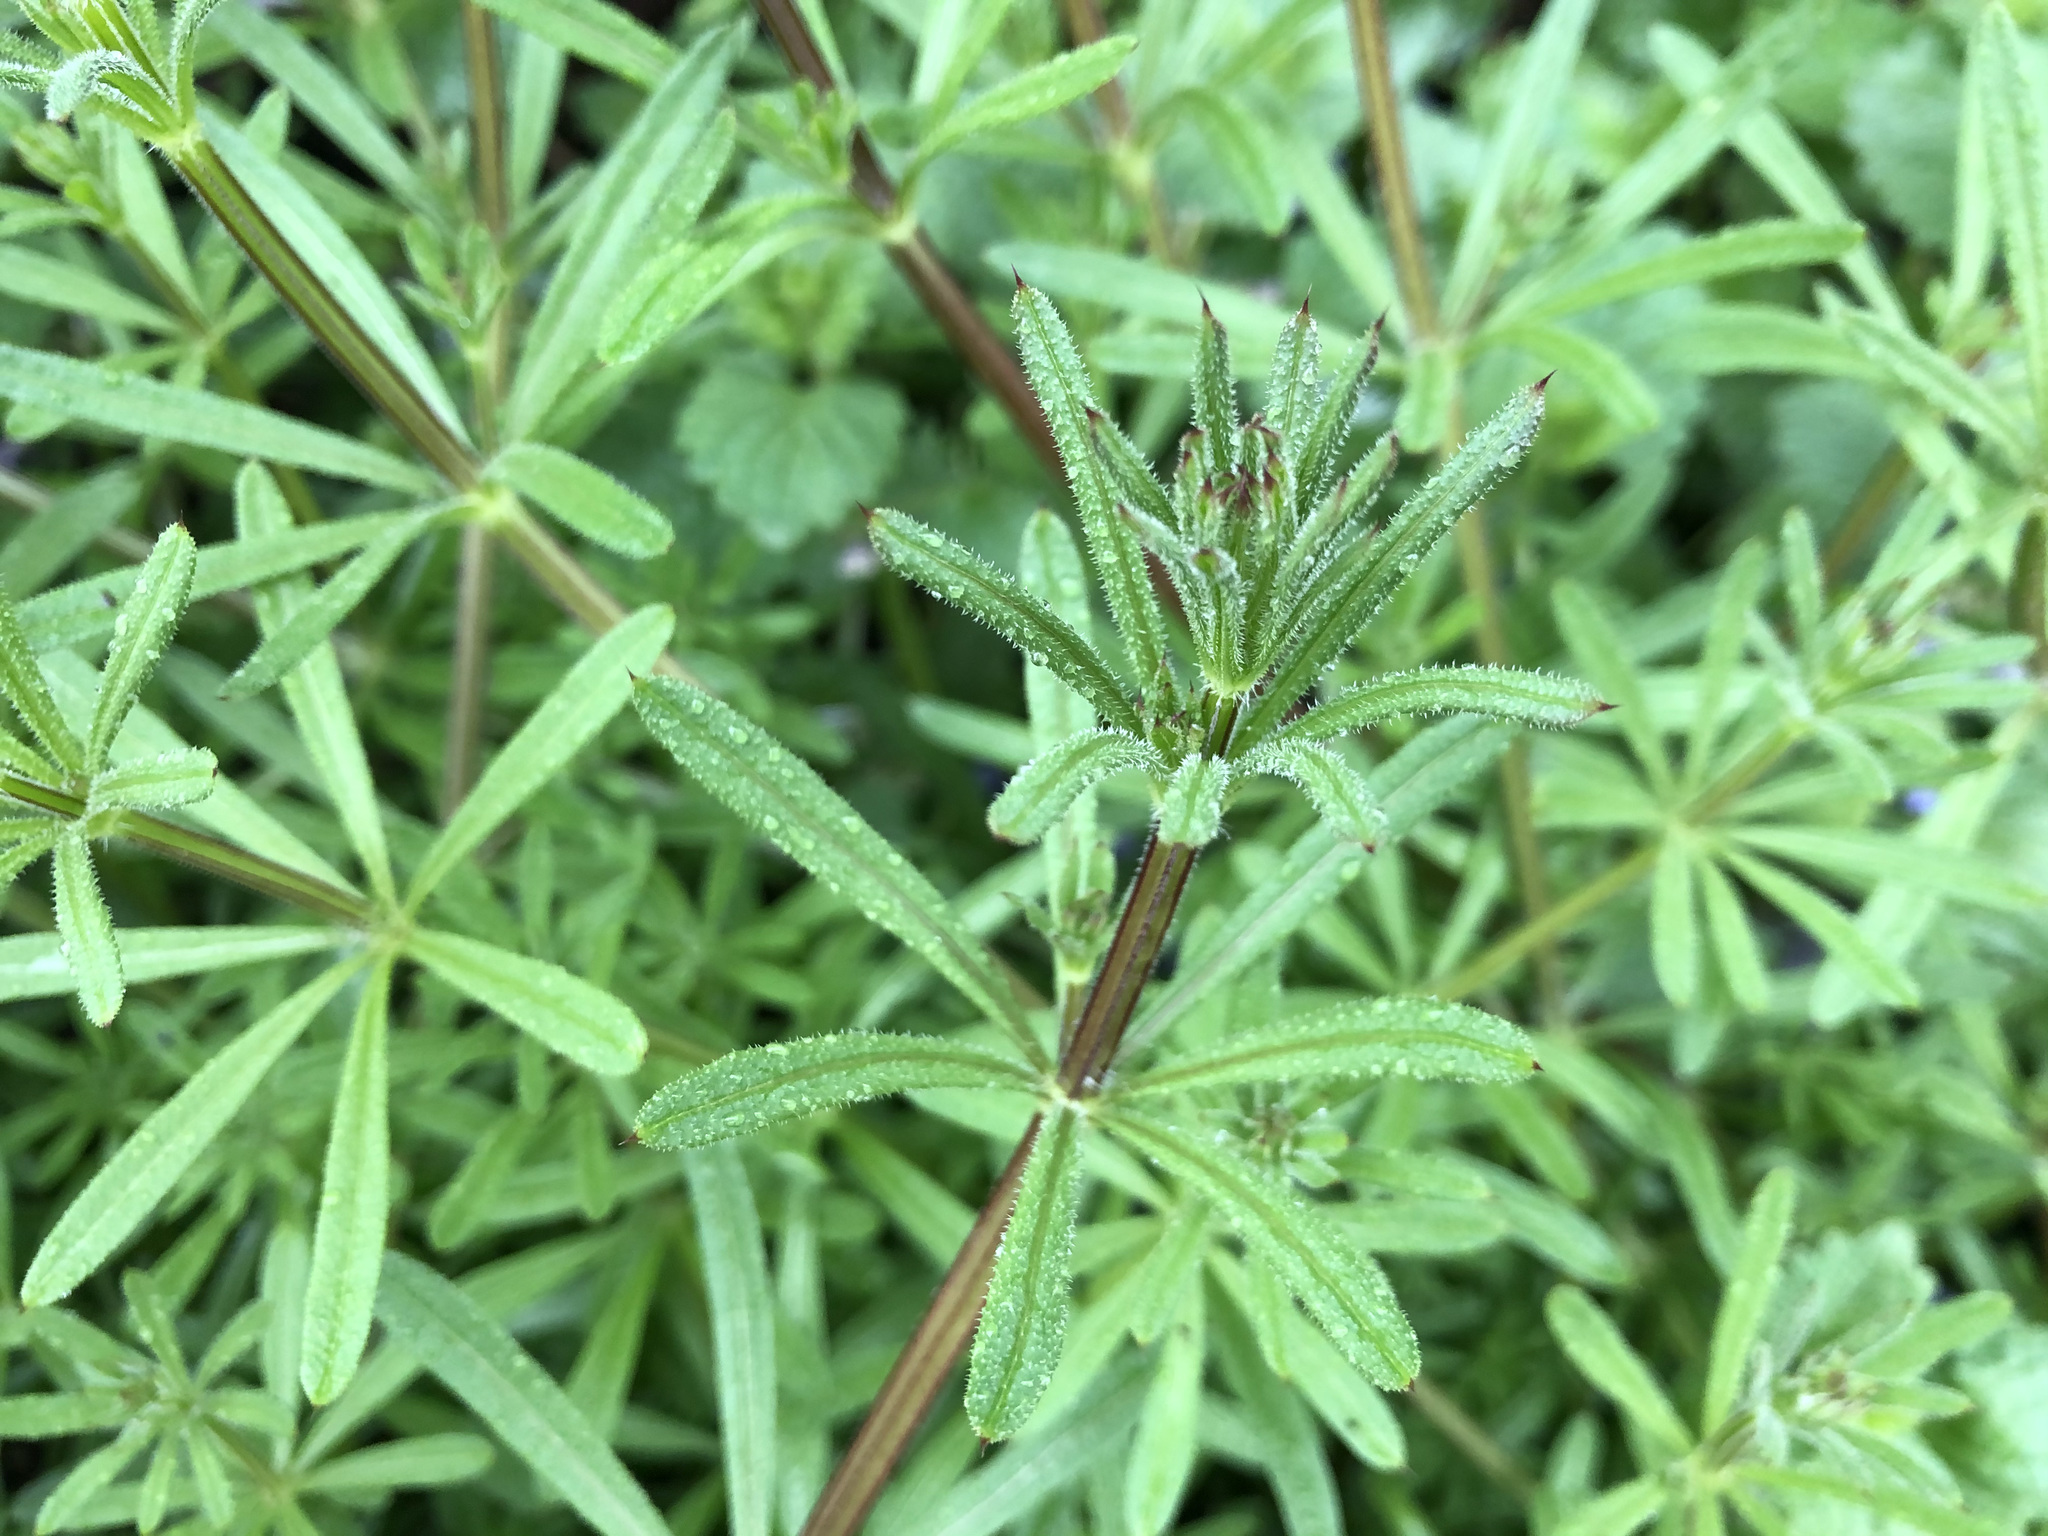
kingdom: Plantae
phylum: Tracheophyta
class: Magnoliopsida
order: Gentianales
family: Rubiaceae
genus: Galium
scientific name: Galium aparine
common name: Cleavers
